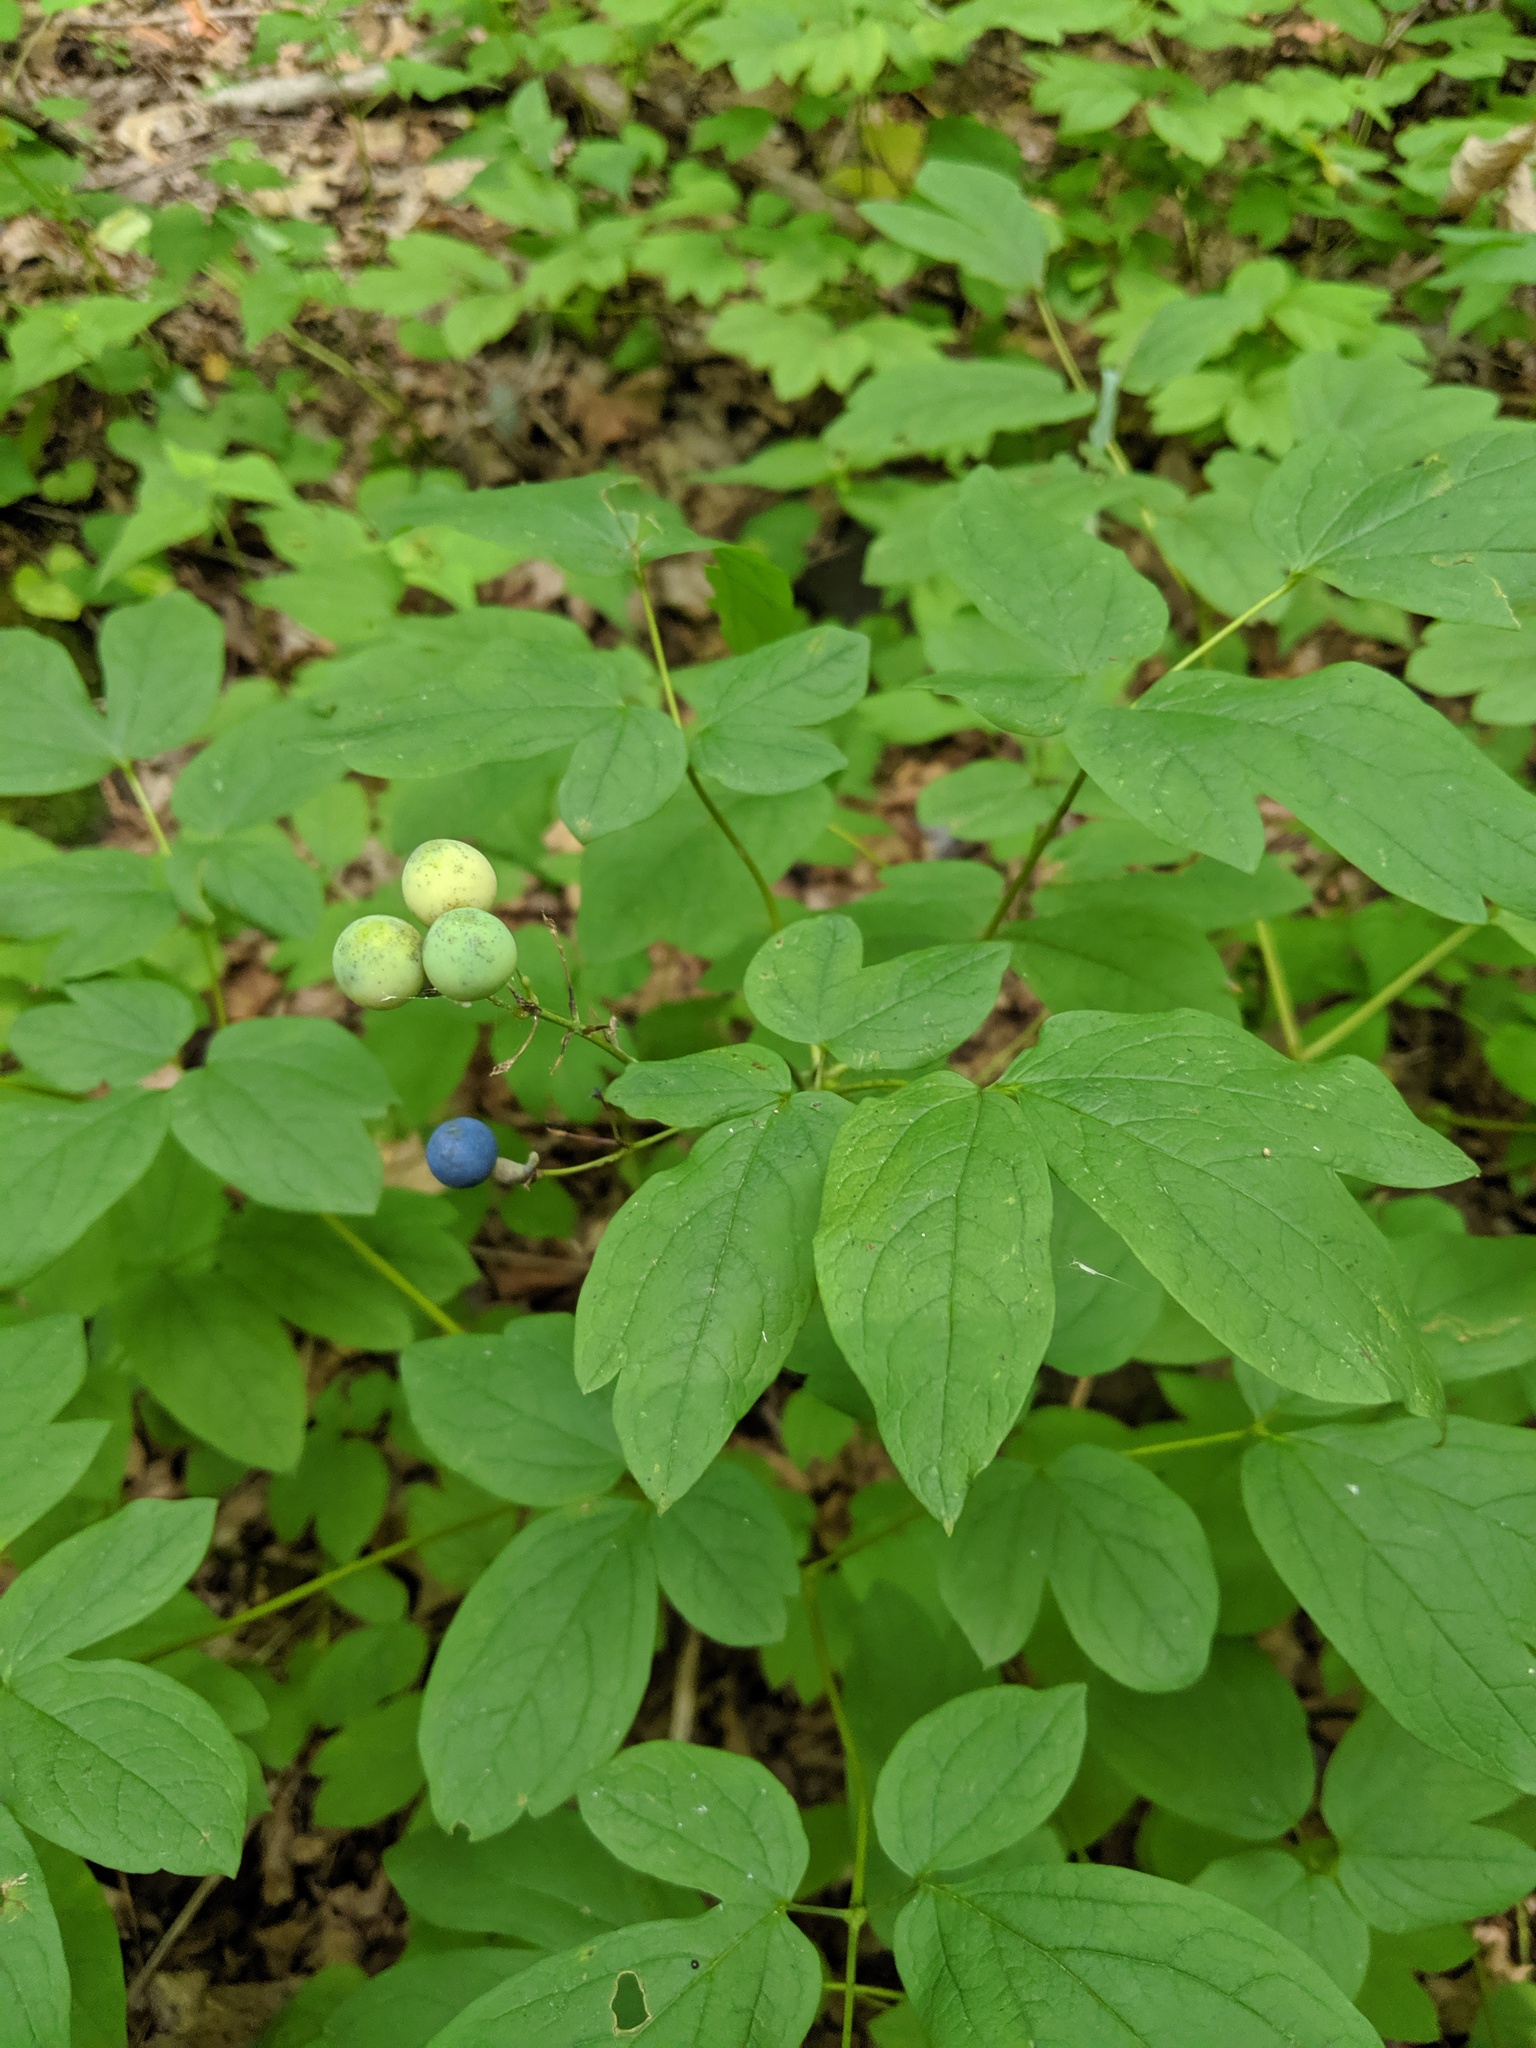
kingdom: Plantae
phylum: Tracheophyta
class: Magnoliopsida
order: Ranunculales
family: Berberidaceae
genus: Caulophyllum
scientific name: Caulophyllum thalictroides
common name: Blue cohosh
